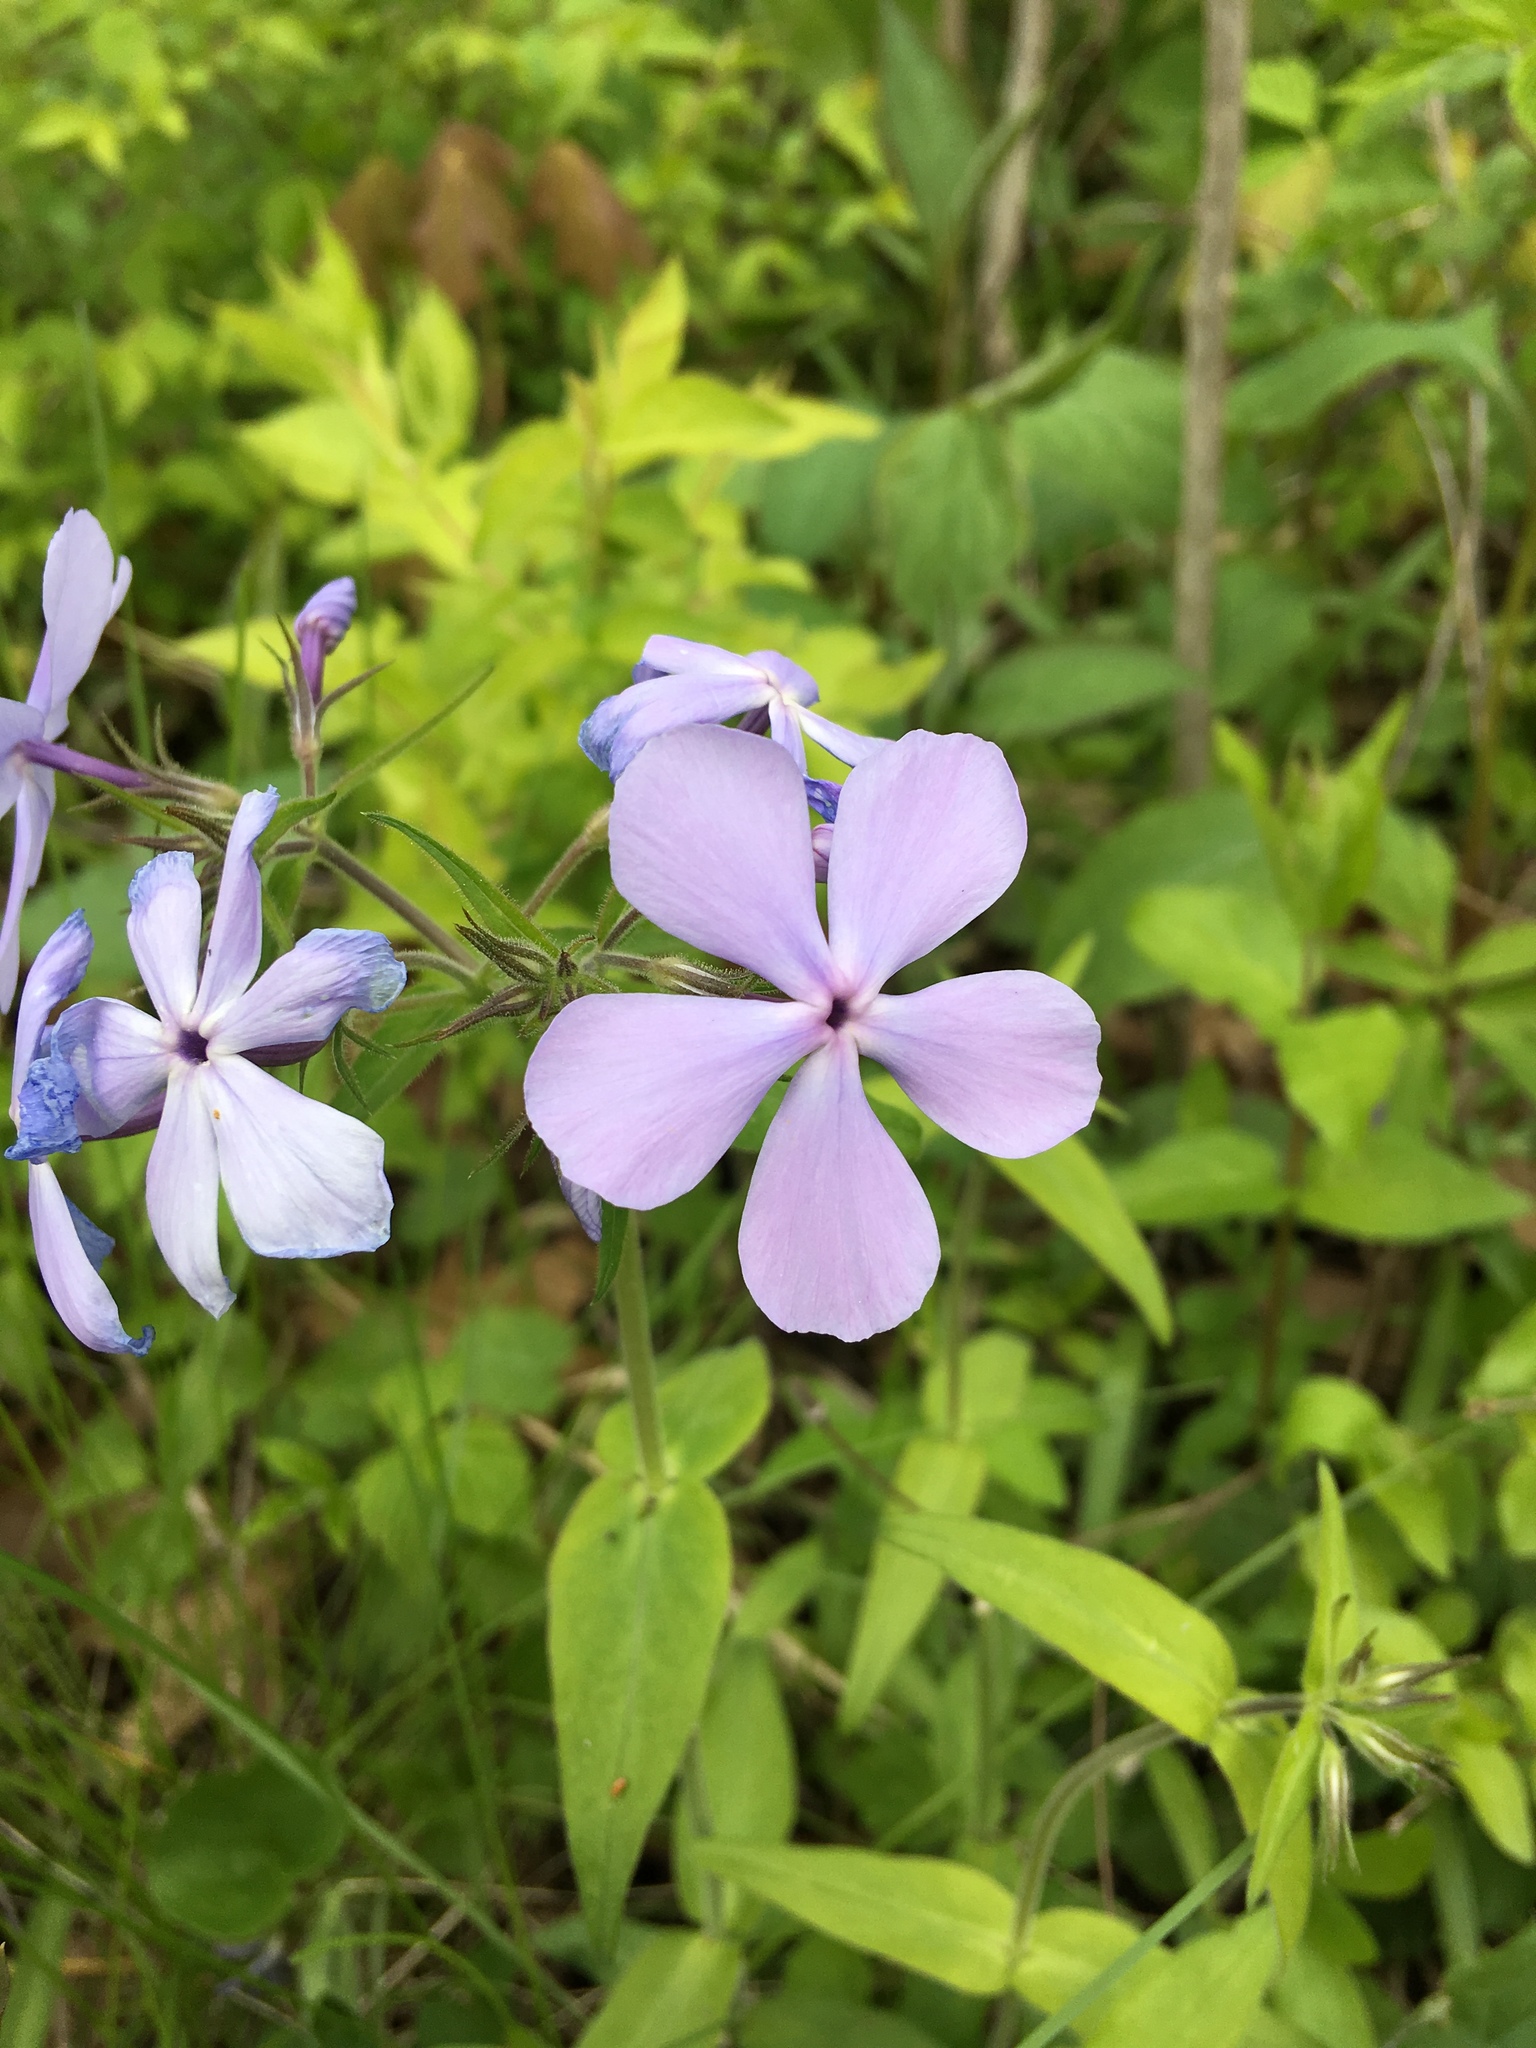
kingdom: Plantae
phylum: Tracheophyta
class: Magnoliopsida
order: Ericales
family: Polemoniaceae
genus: Phlox
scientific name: Phlox divaricata
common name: Blue phlox
